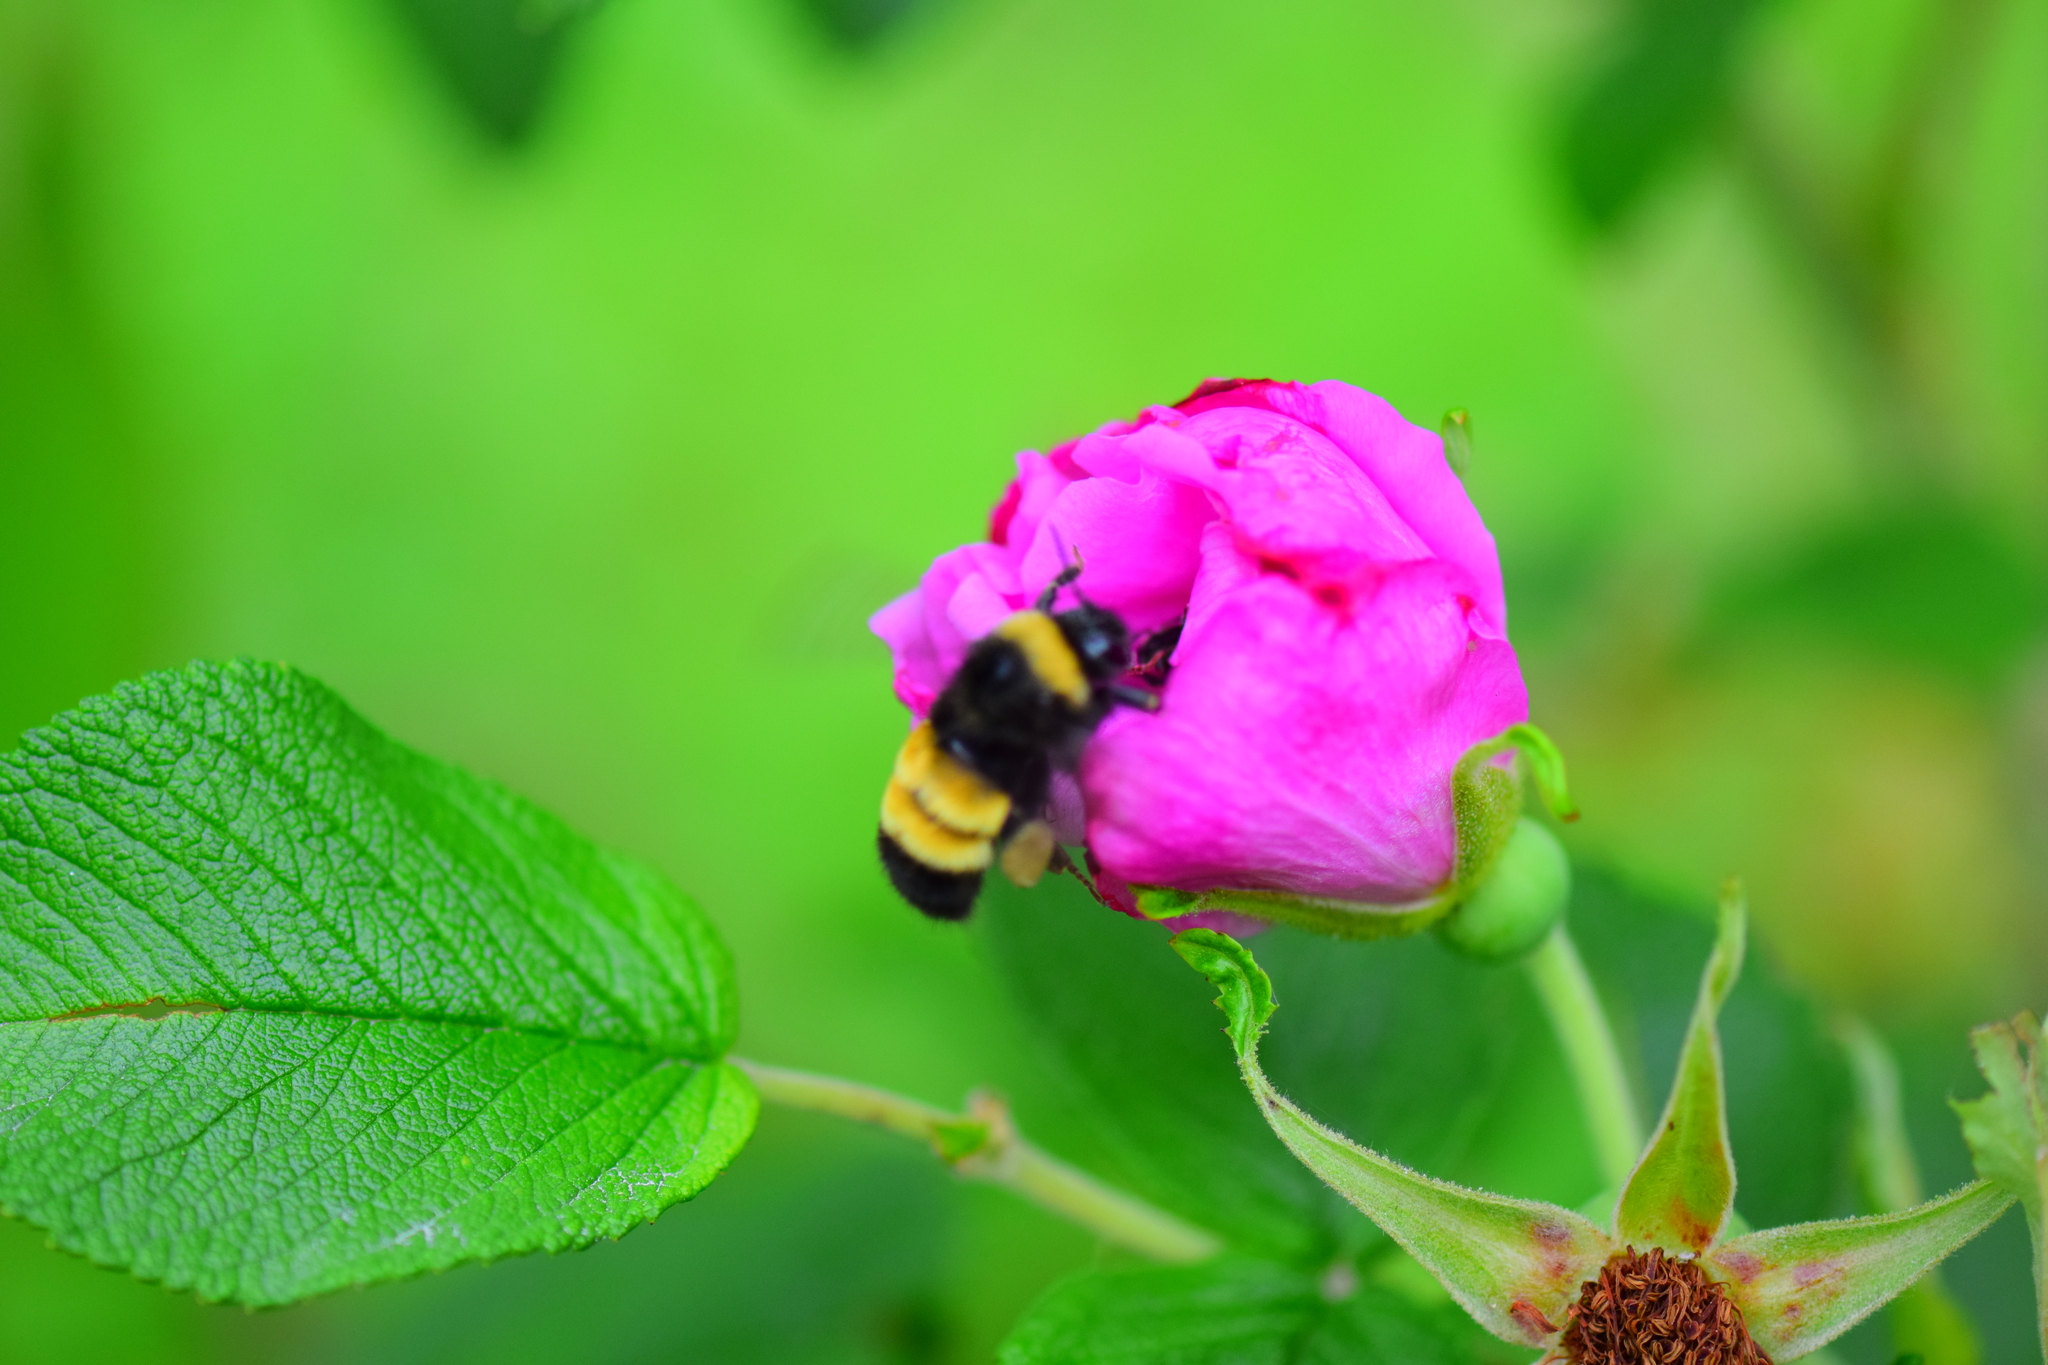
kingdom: Animalia
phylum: Arthropoda
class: Insecta
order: Hymenoptera
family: Apidae
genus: Bombus
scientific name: Bombus terricola
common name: Yellow-banded bumble bee
